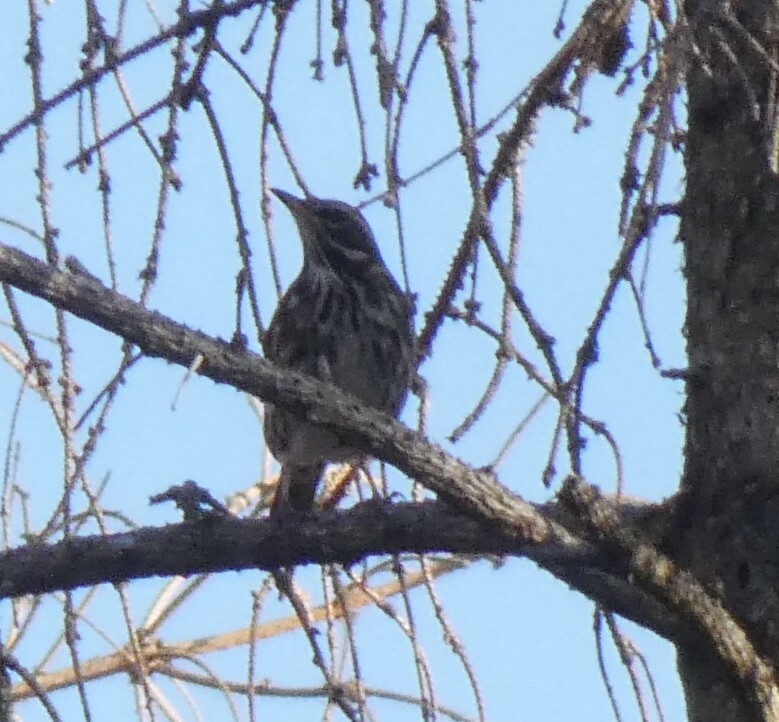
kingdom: Animalia
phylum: Chordata
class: Aves
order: Passeriformes
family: Turdidae
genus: Turdus
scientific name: Turdus iliacus
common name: Redwing
